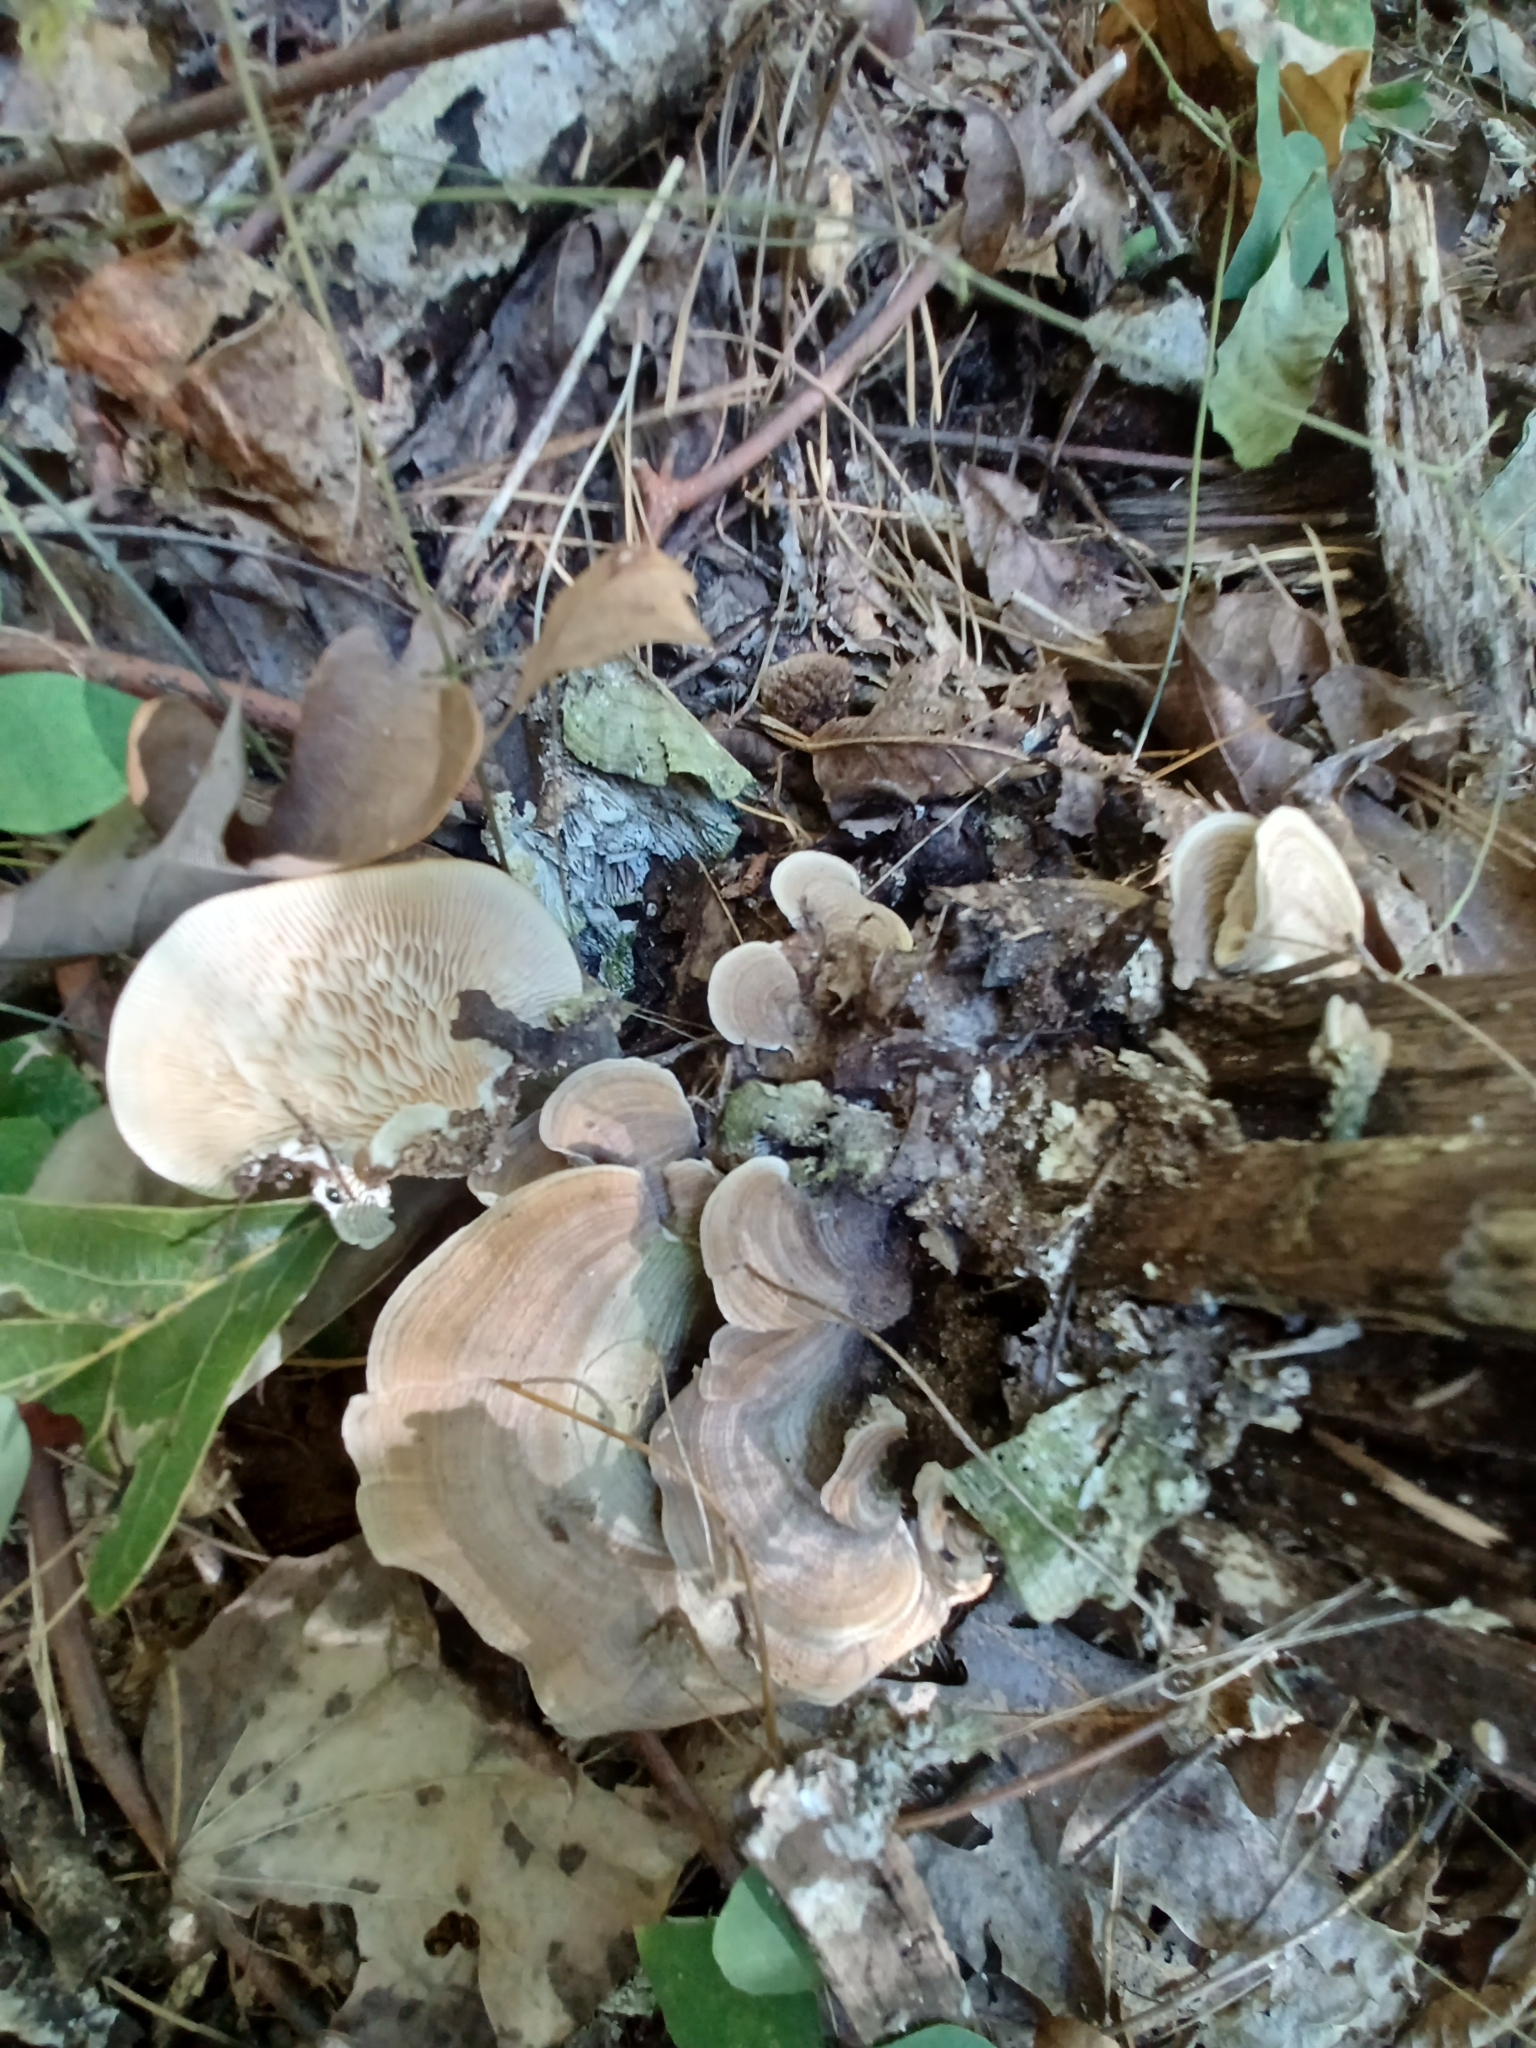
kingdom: Fungi
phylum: Basidiomycota
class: Agaricomycetes
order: Polyporales
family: Polyporaceae
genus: Lenzites
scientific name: Lenzites betulinus
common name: Birch mazegill
